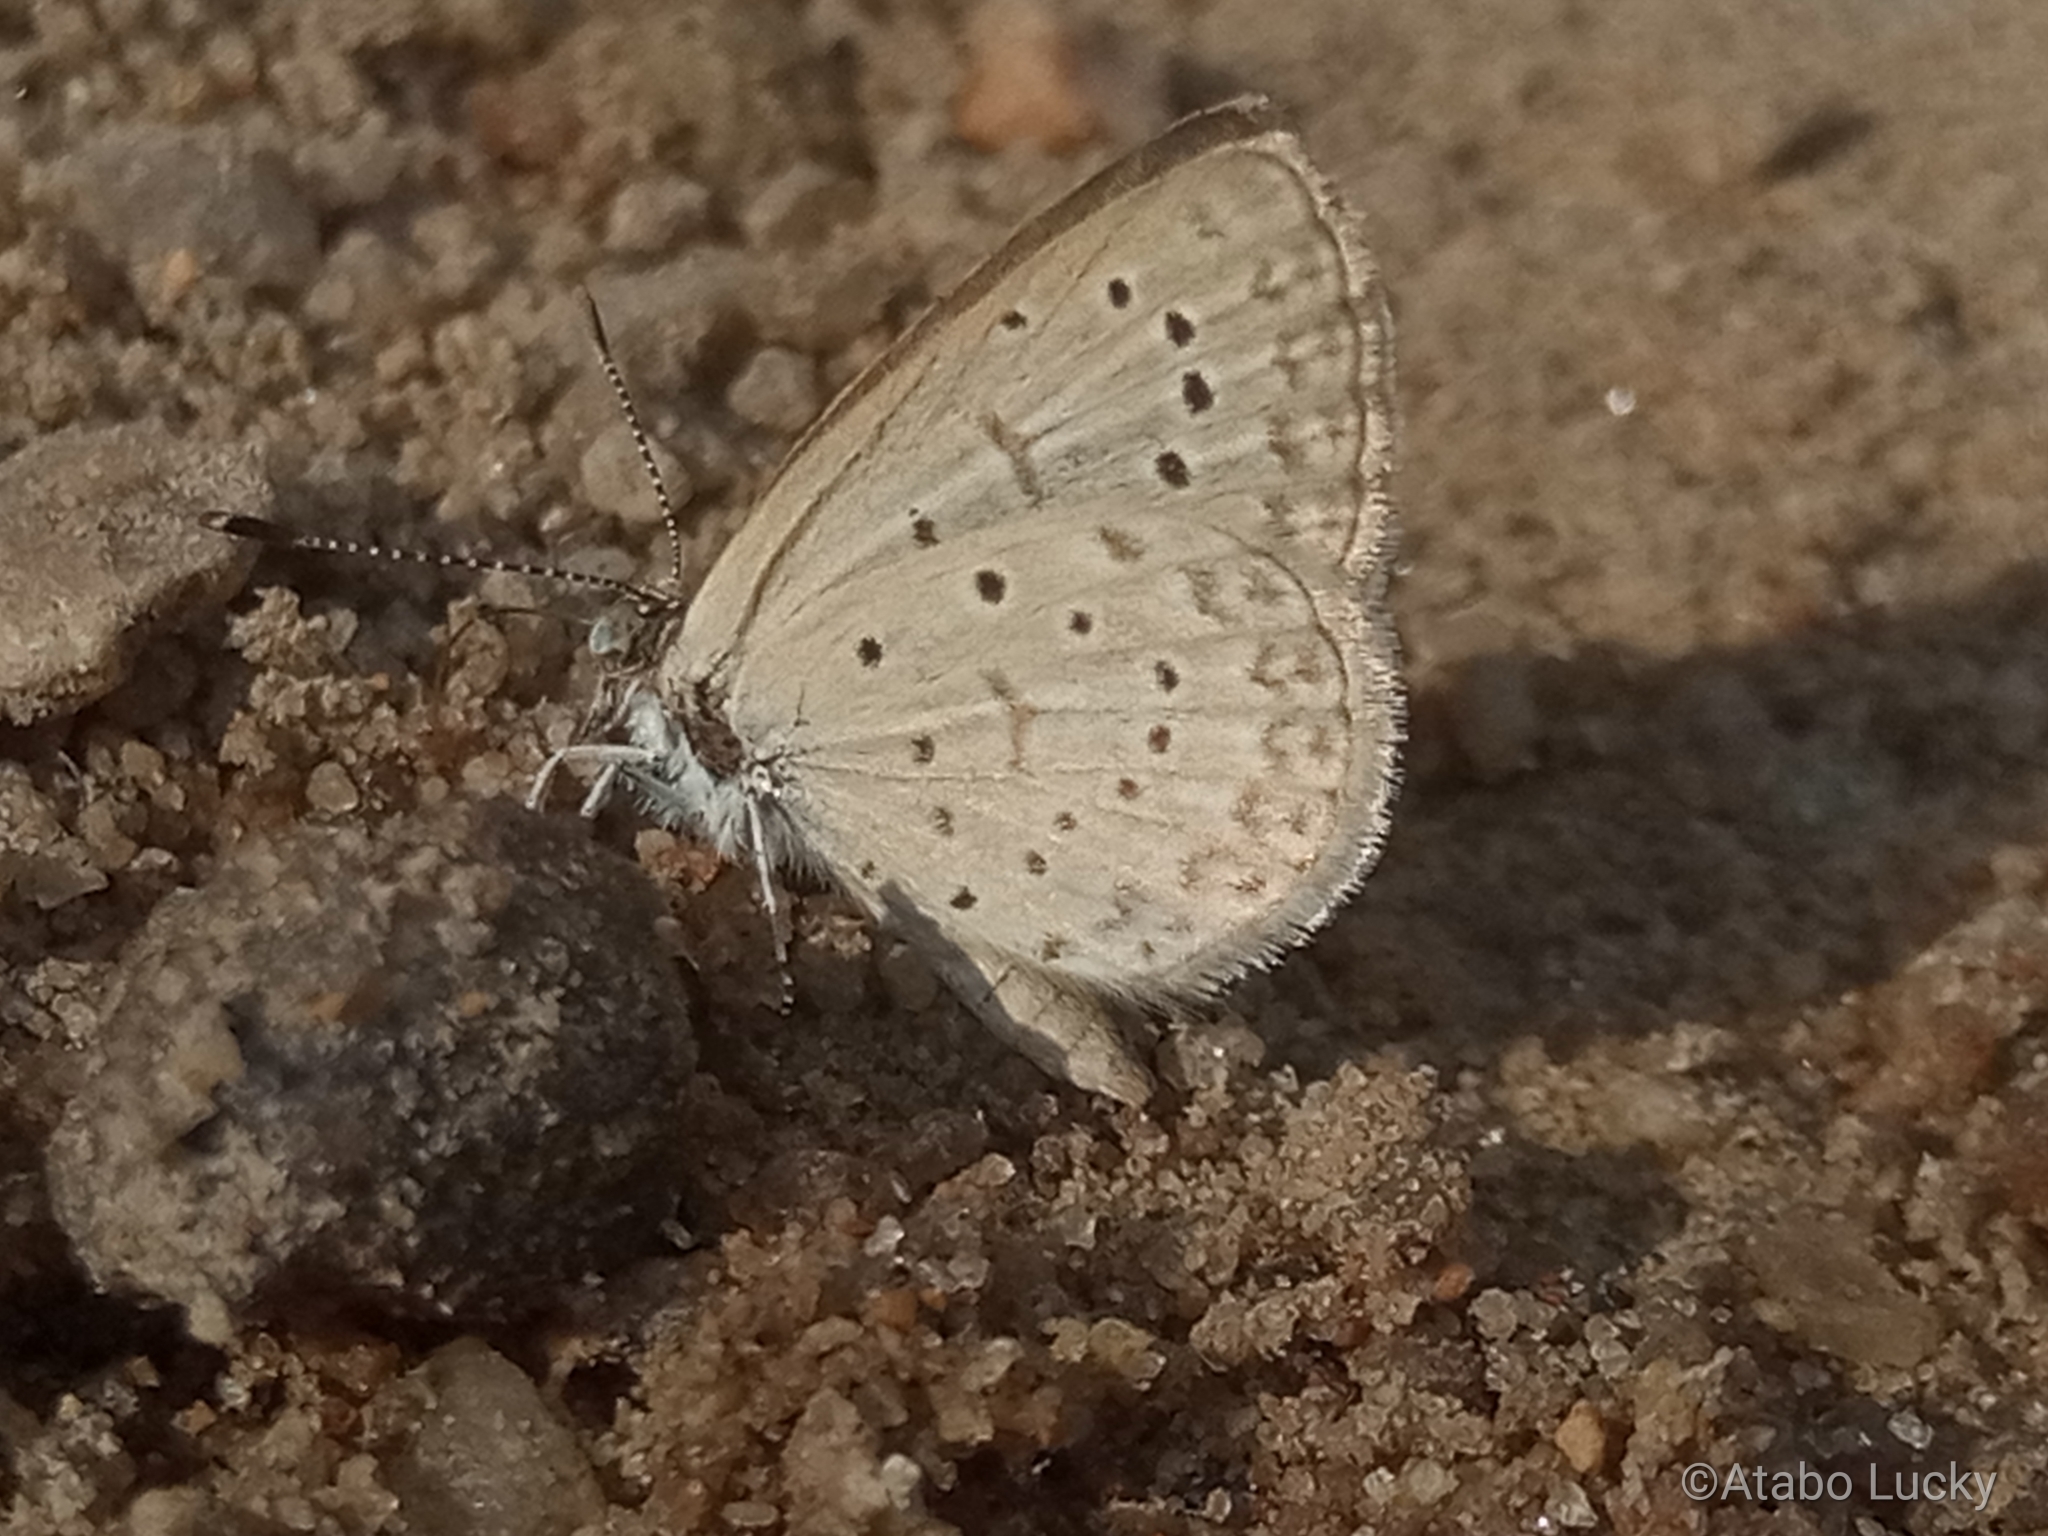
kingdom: Animalia
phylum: Arthropoda
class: Insecta
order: Lepidoptera
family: Lycaenidae
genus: Zizeeria
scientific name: Zizeeria knysna
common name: African grass blue
